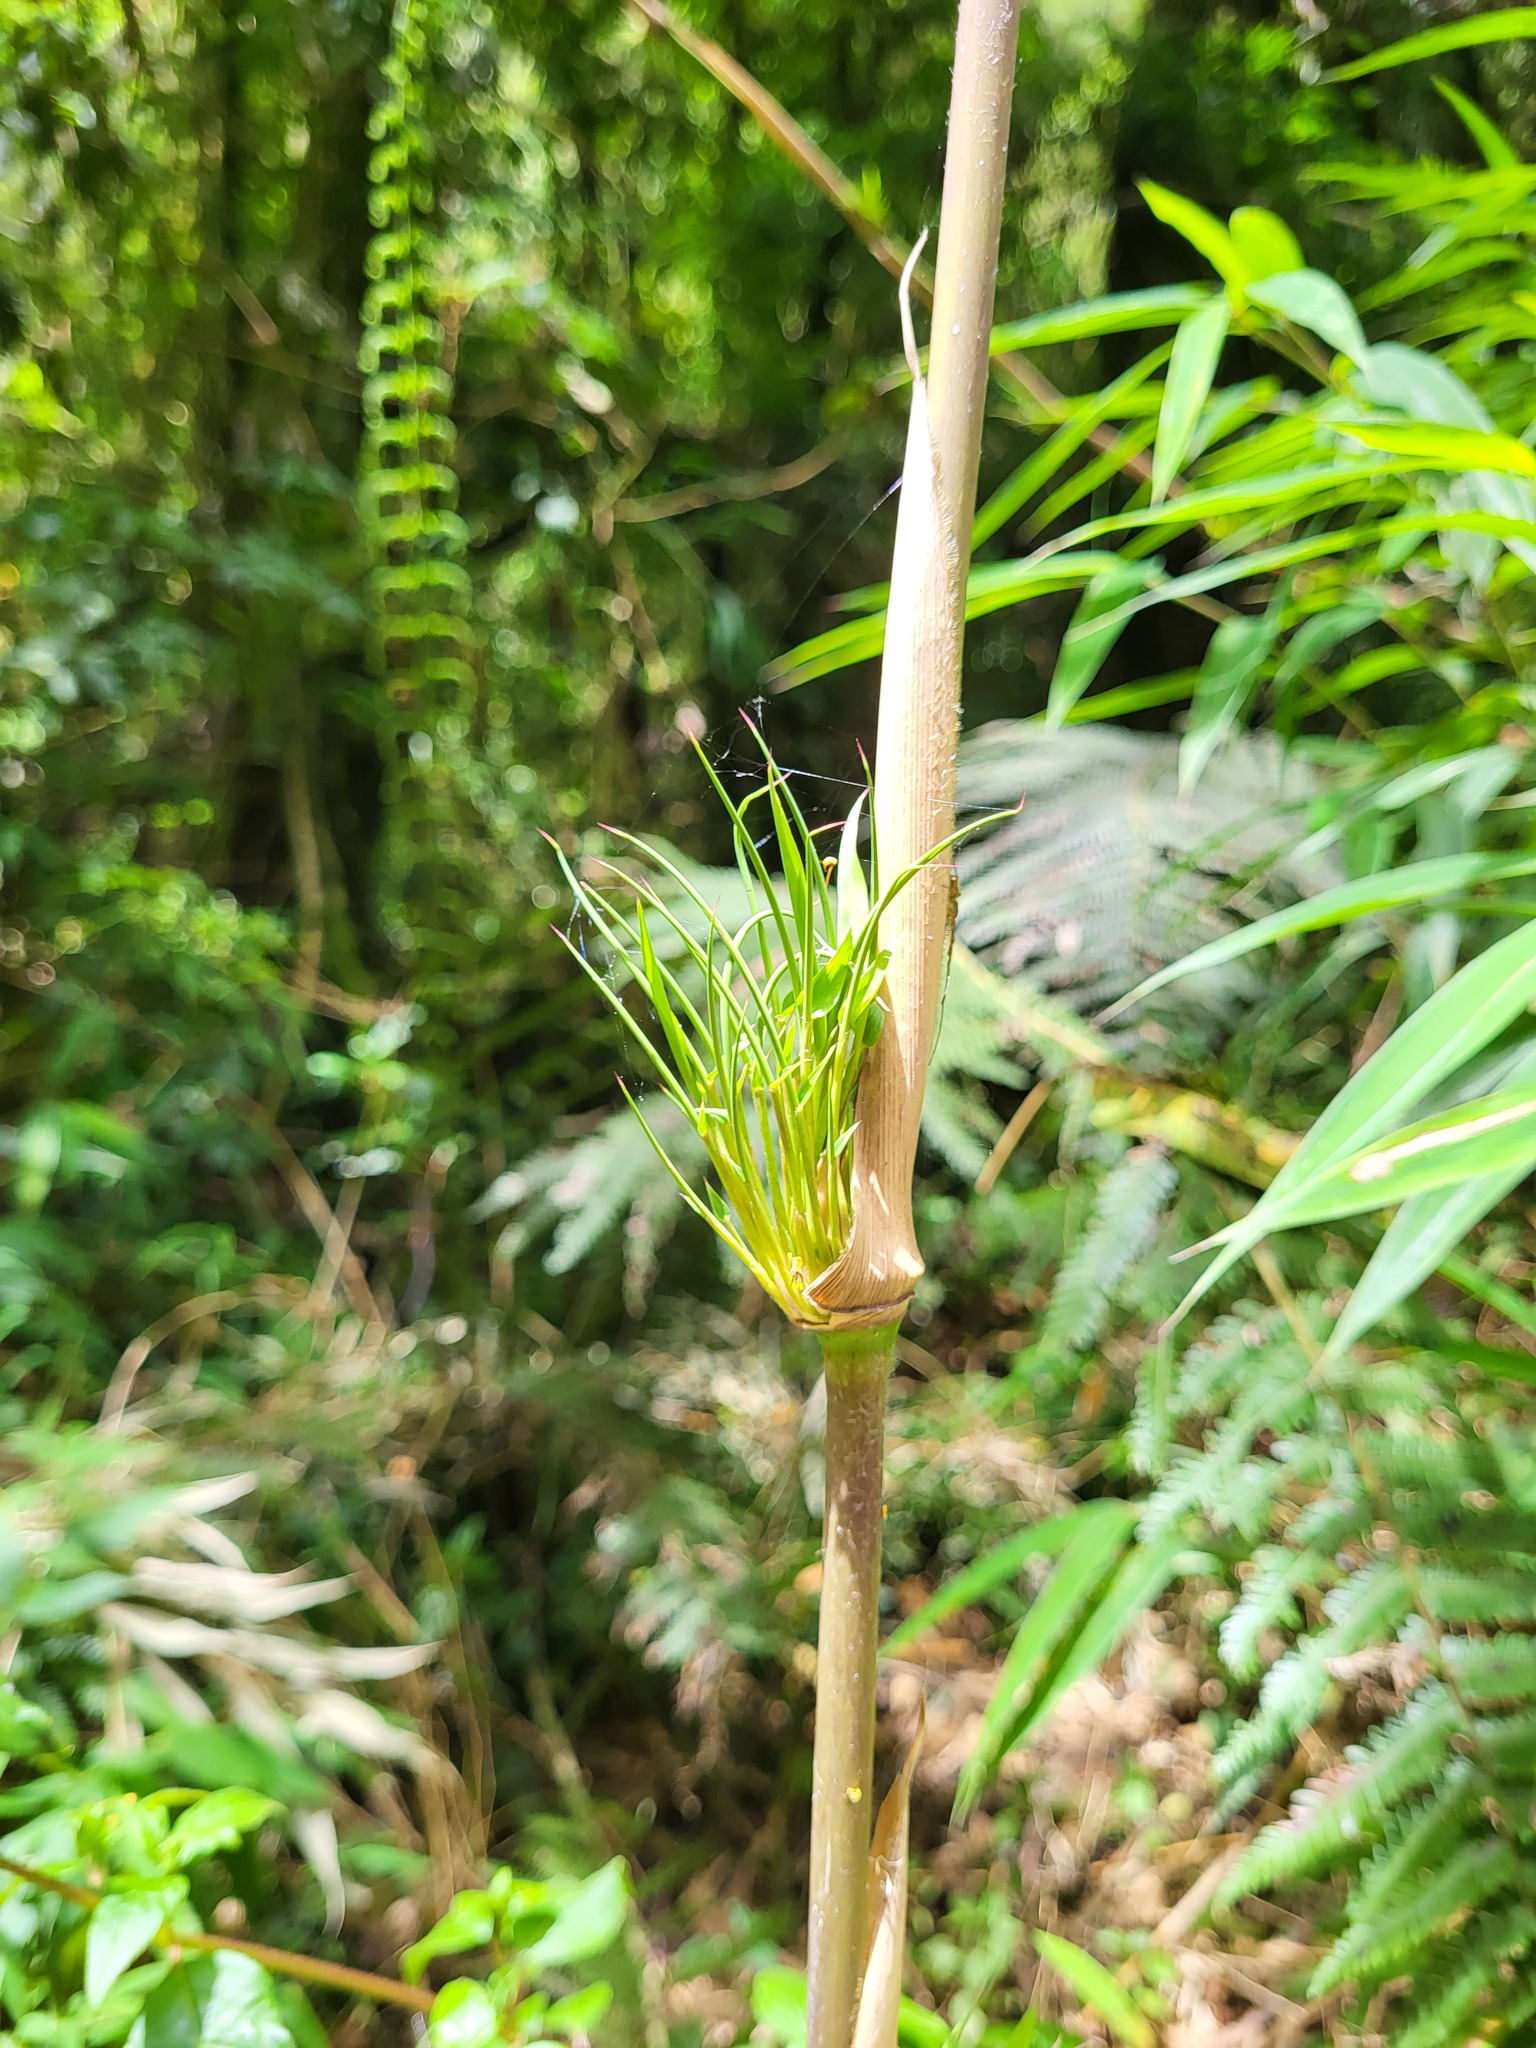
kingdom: Plantae
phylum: Tracheophyta
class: Liliopsida
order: Poales
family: Poaceae
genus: Chusquea
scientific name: Chusquea scandens
